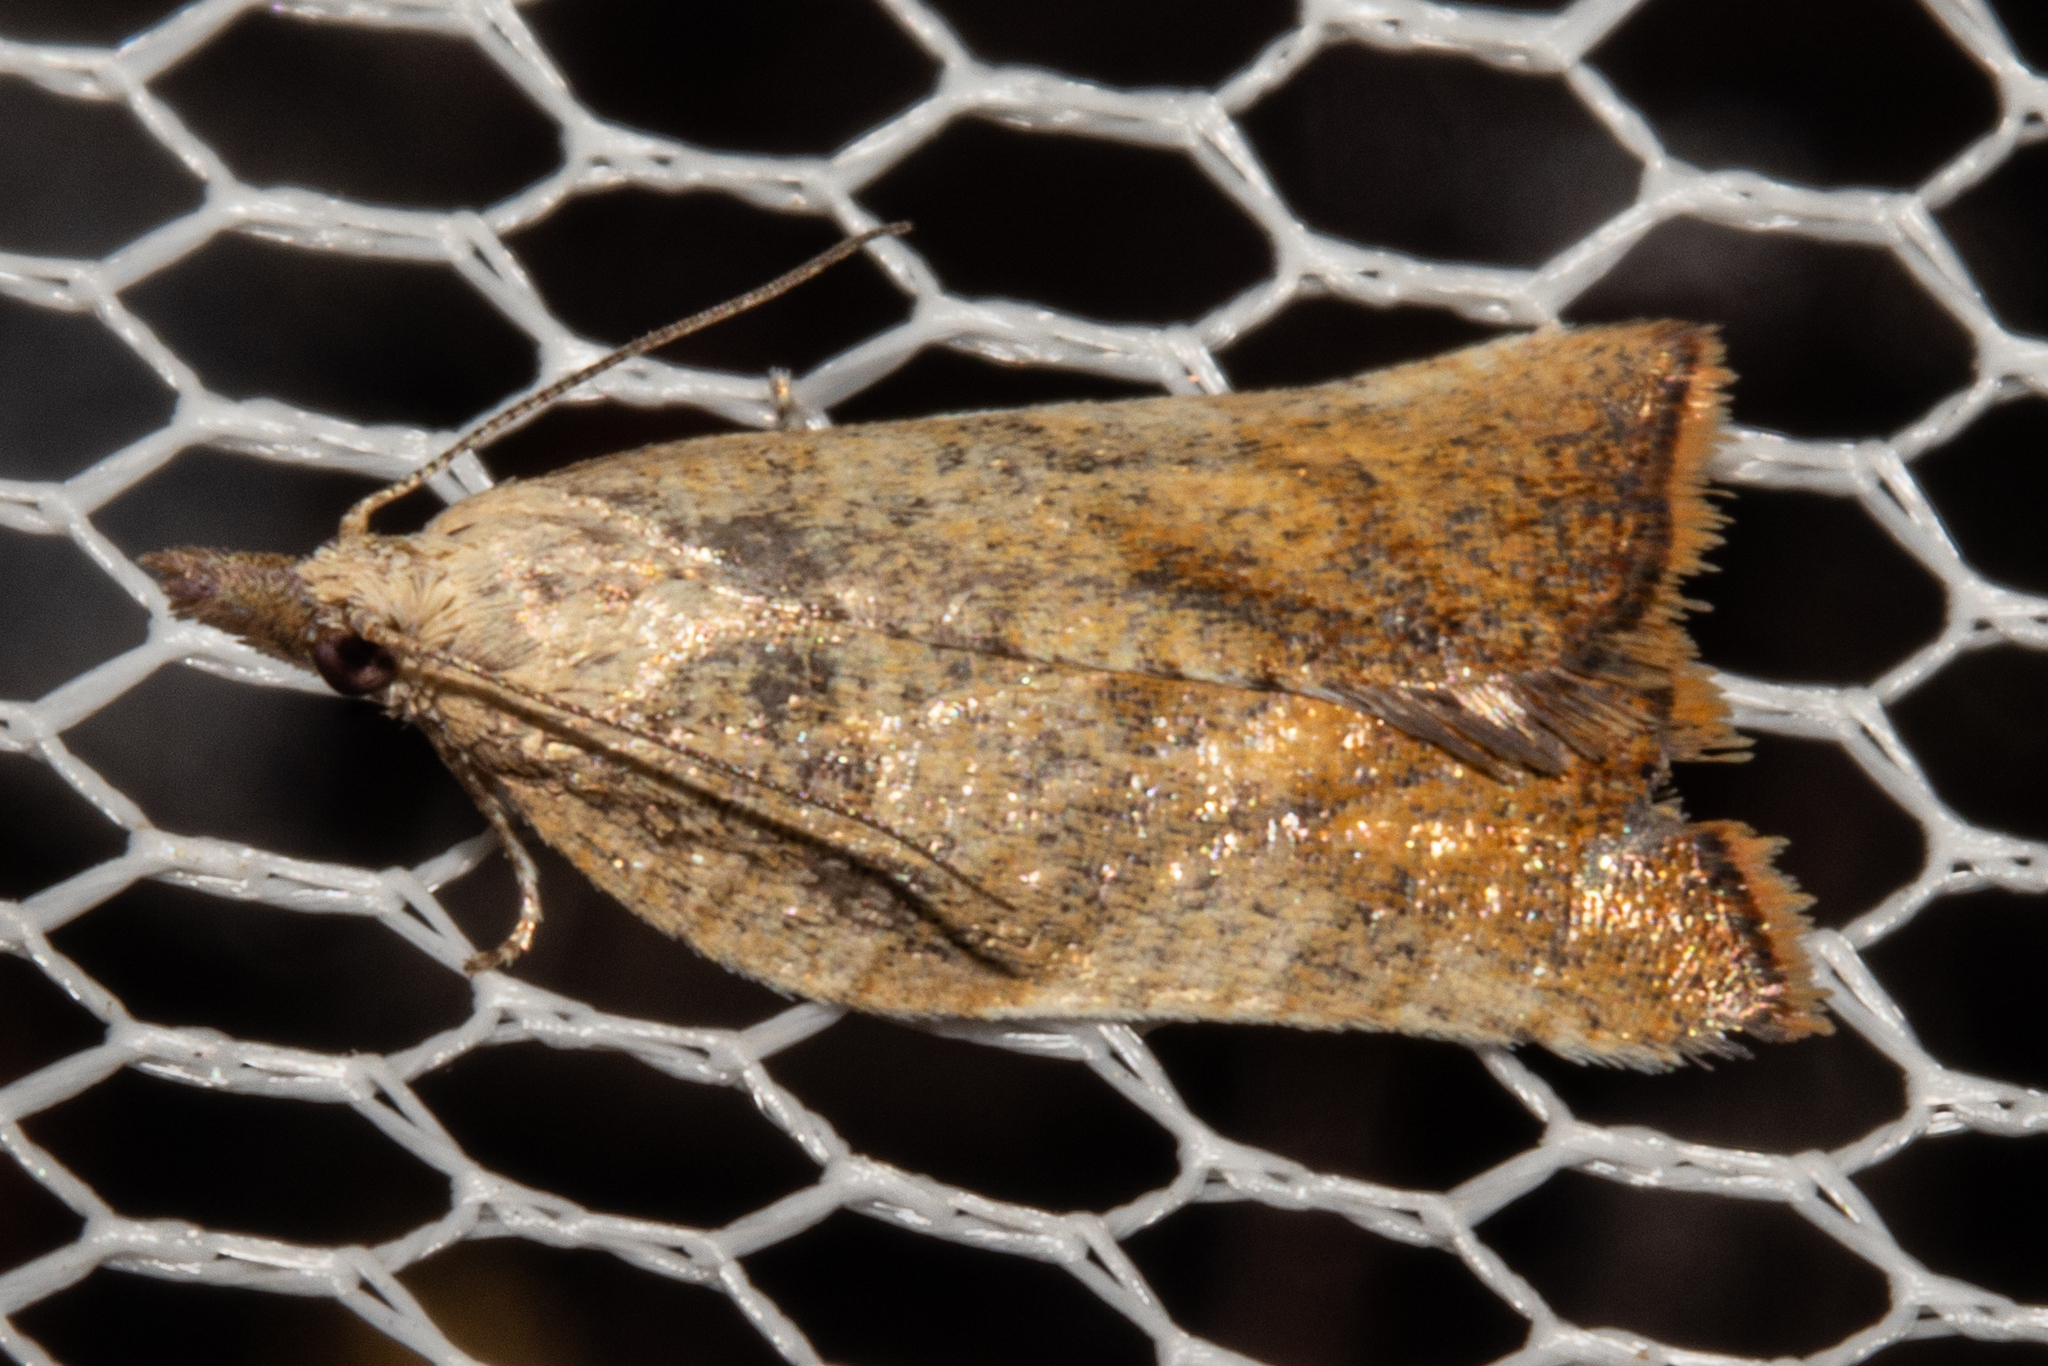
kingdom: Animalia
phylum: Arthropoda
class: Insecta
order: Lepidoptera
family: Tortricidae
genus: Catamacta
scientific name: Catamacta gavisana
